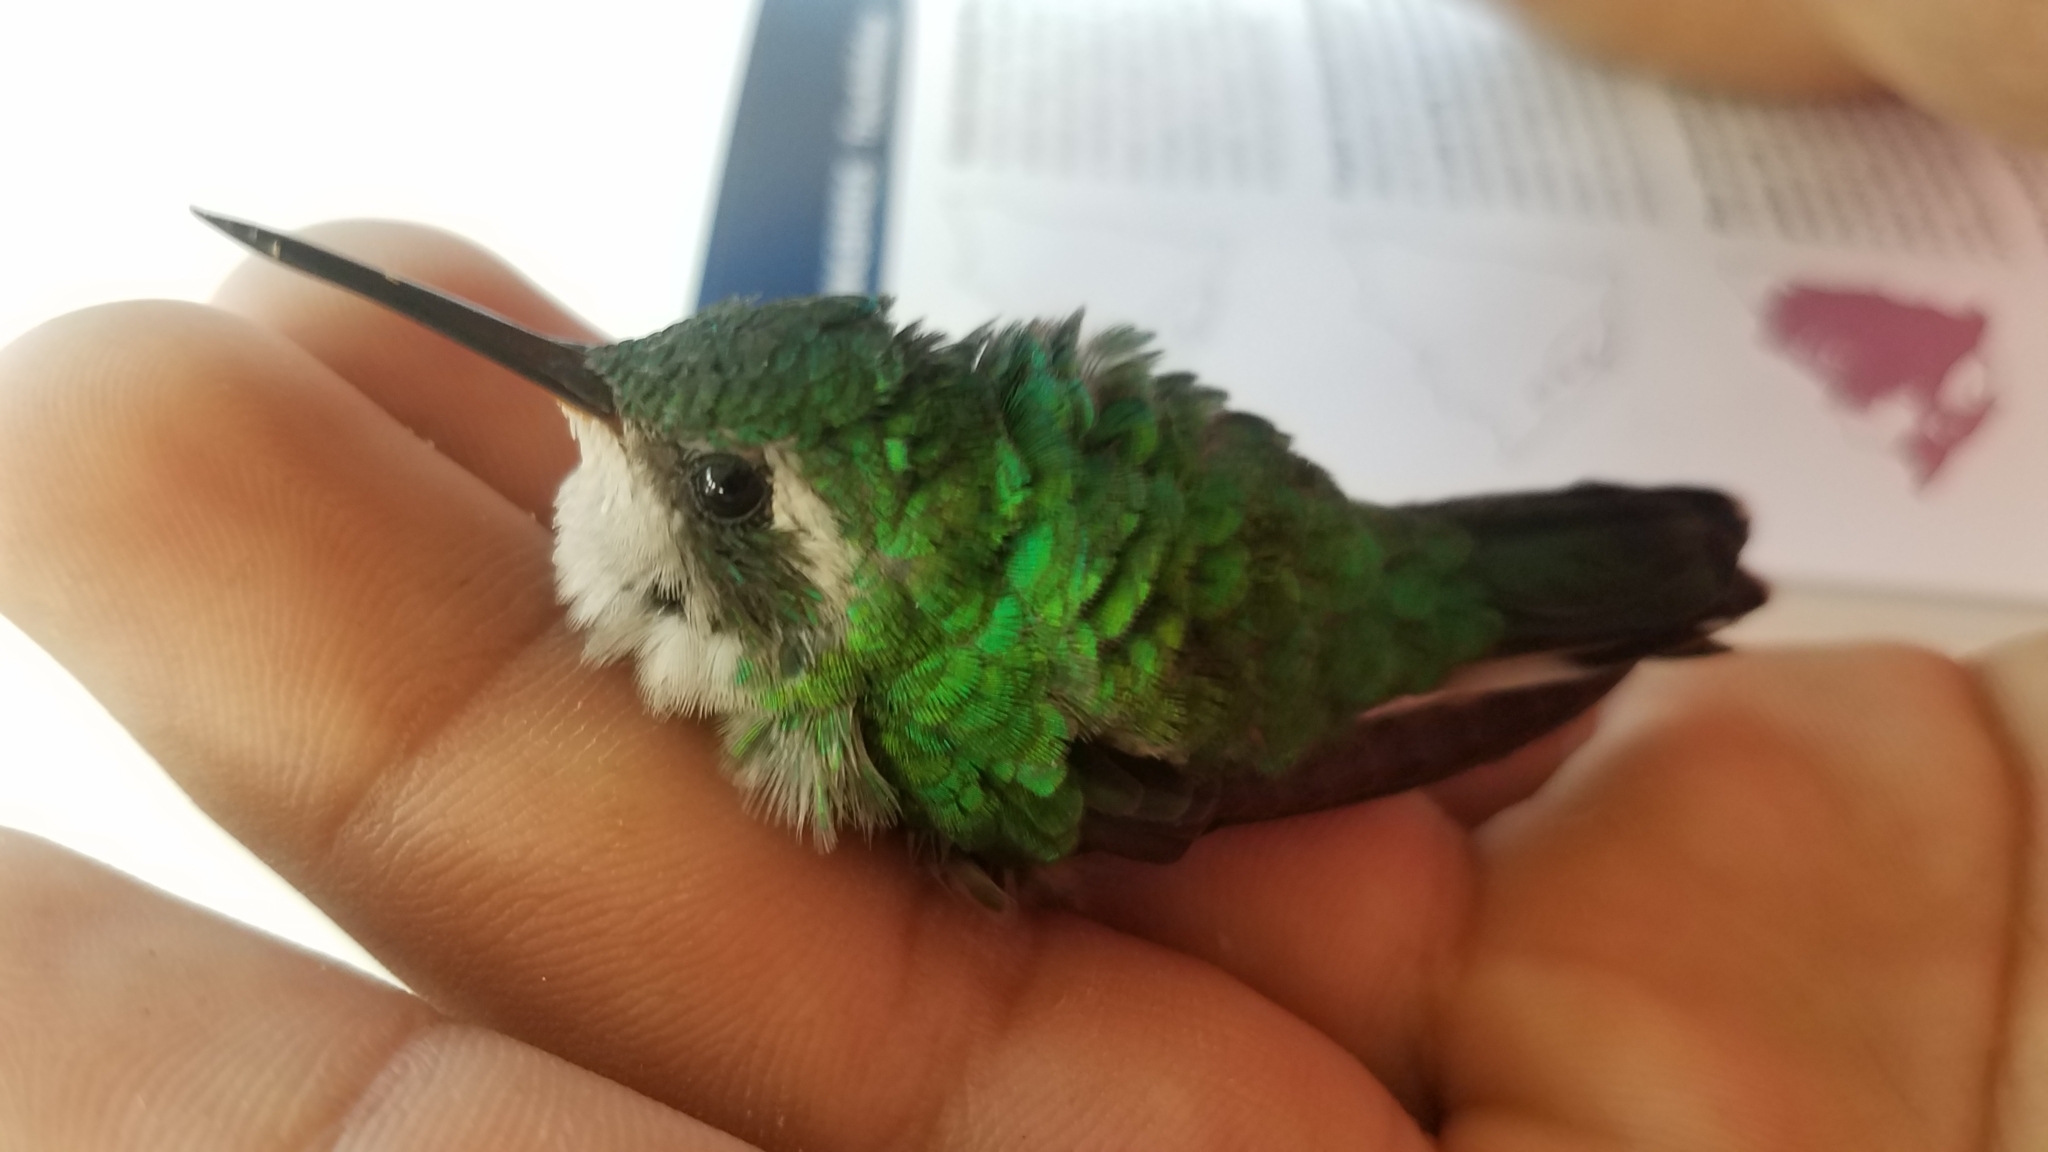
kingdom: Animalia
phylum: Chordata
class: Aves
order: Apodiformes
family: Trochilidae
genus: Cynanthus
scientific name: Cynanthus canivetii
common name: Canivet's emerald
